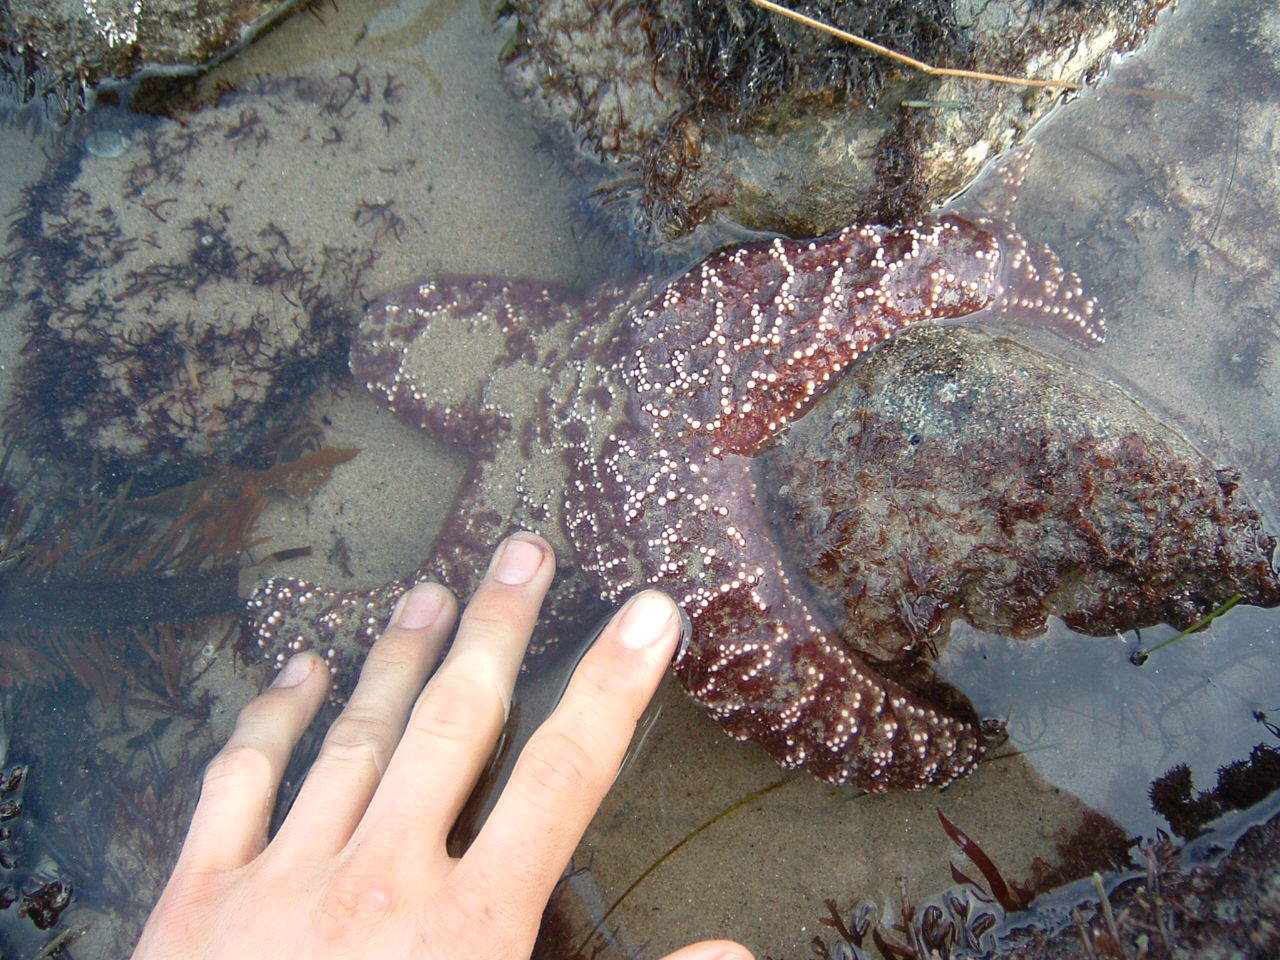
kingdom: Animalia
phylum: Echinodermata
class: Asteroidea
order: Forcipulatida
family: Asteriidae
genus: Pisaster
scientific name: Pisaster ochraceus
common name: Ochre stars
